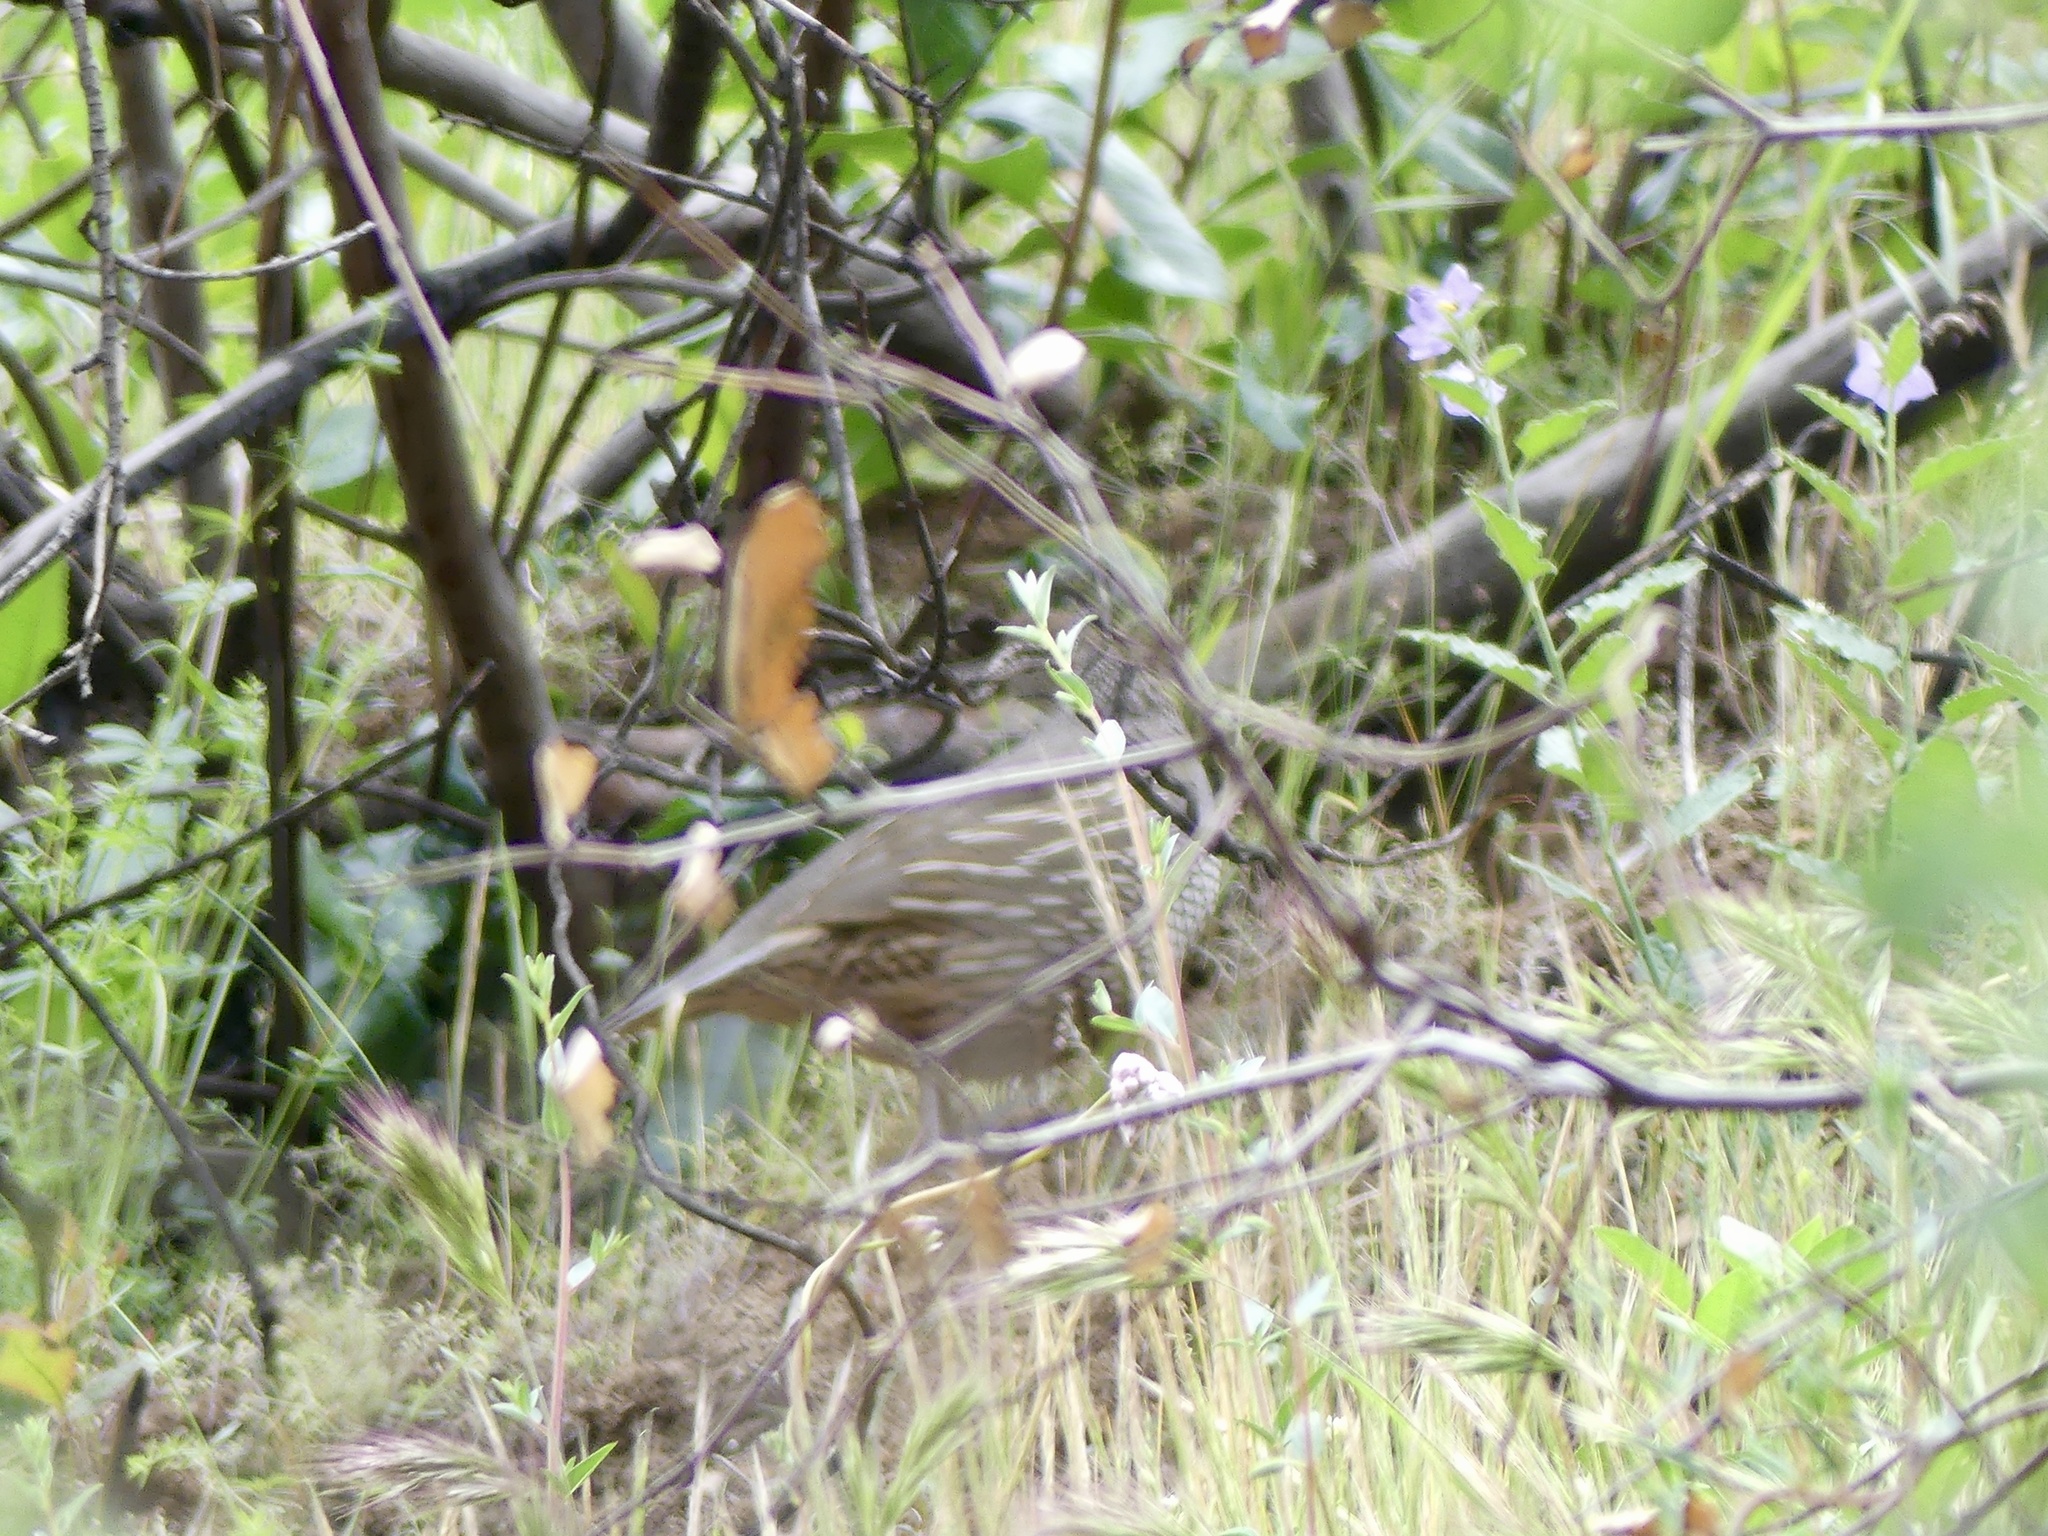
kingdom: Animalia
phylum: Chordata
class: Aves
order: Galliformes
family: Odontophoridae
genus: Callipepla
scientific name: Callipepla californica
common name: California quail
